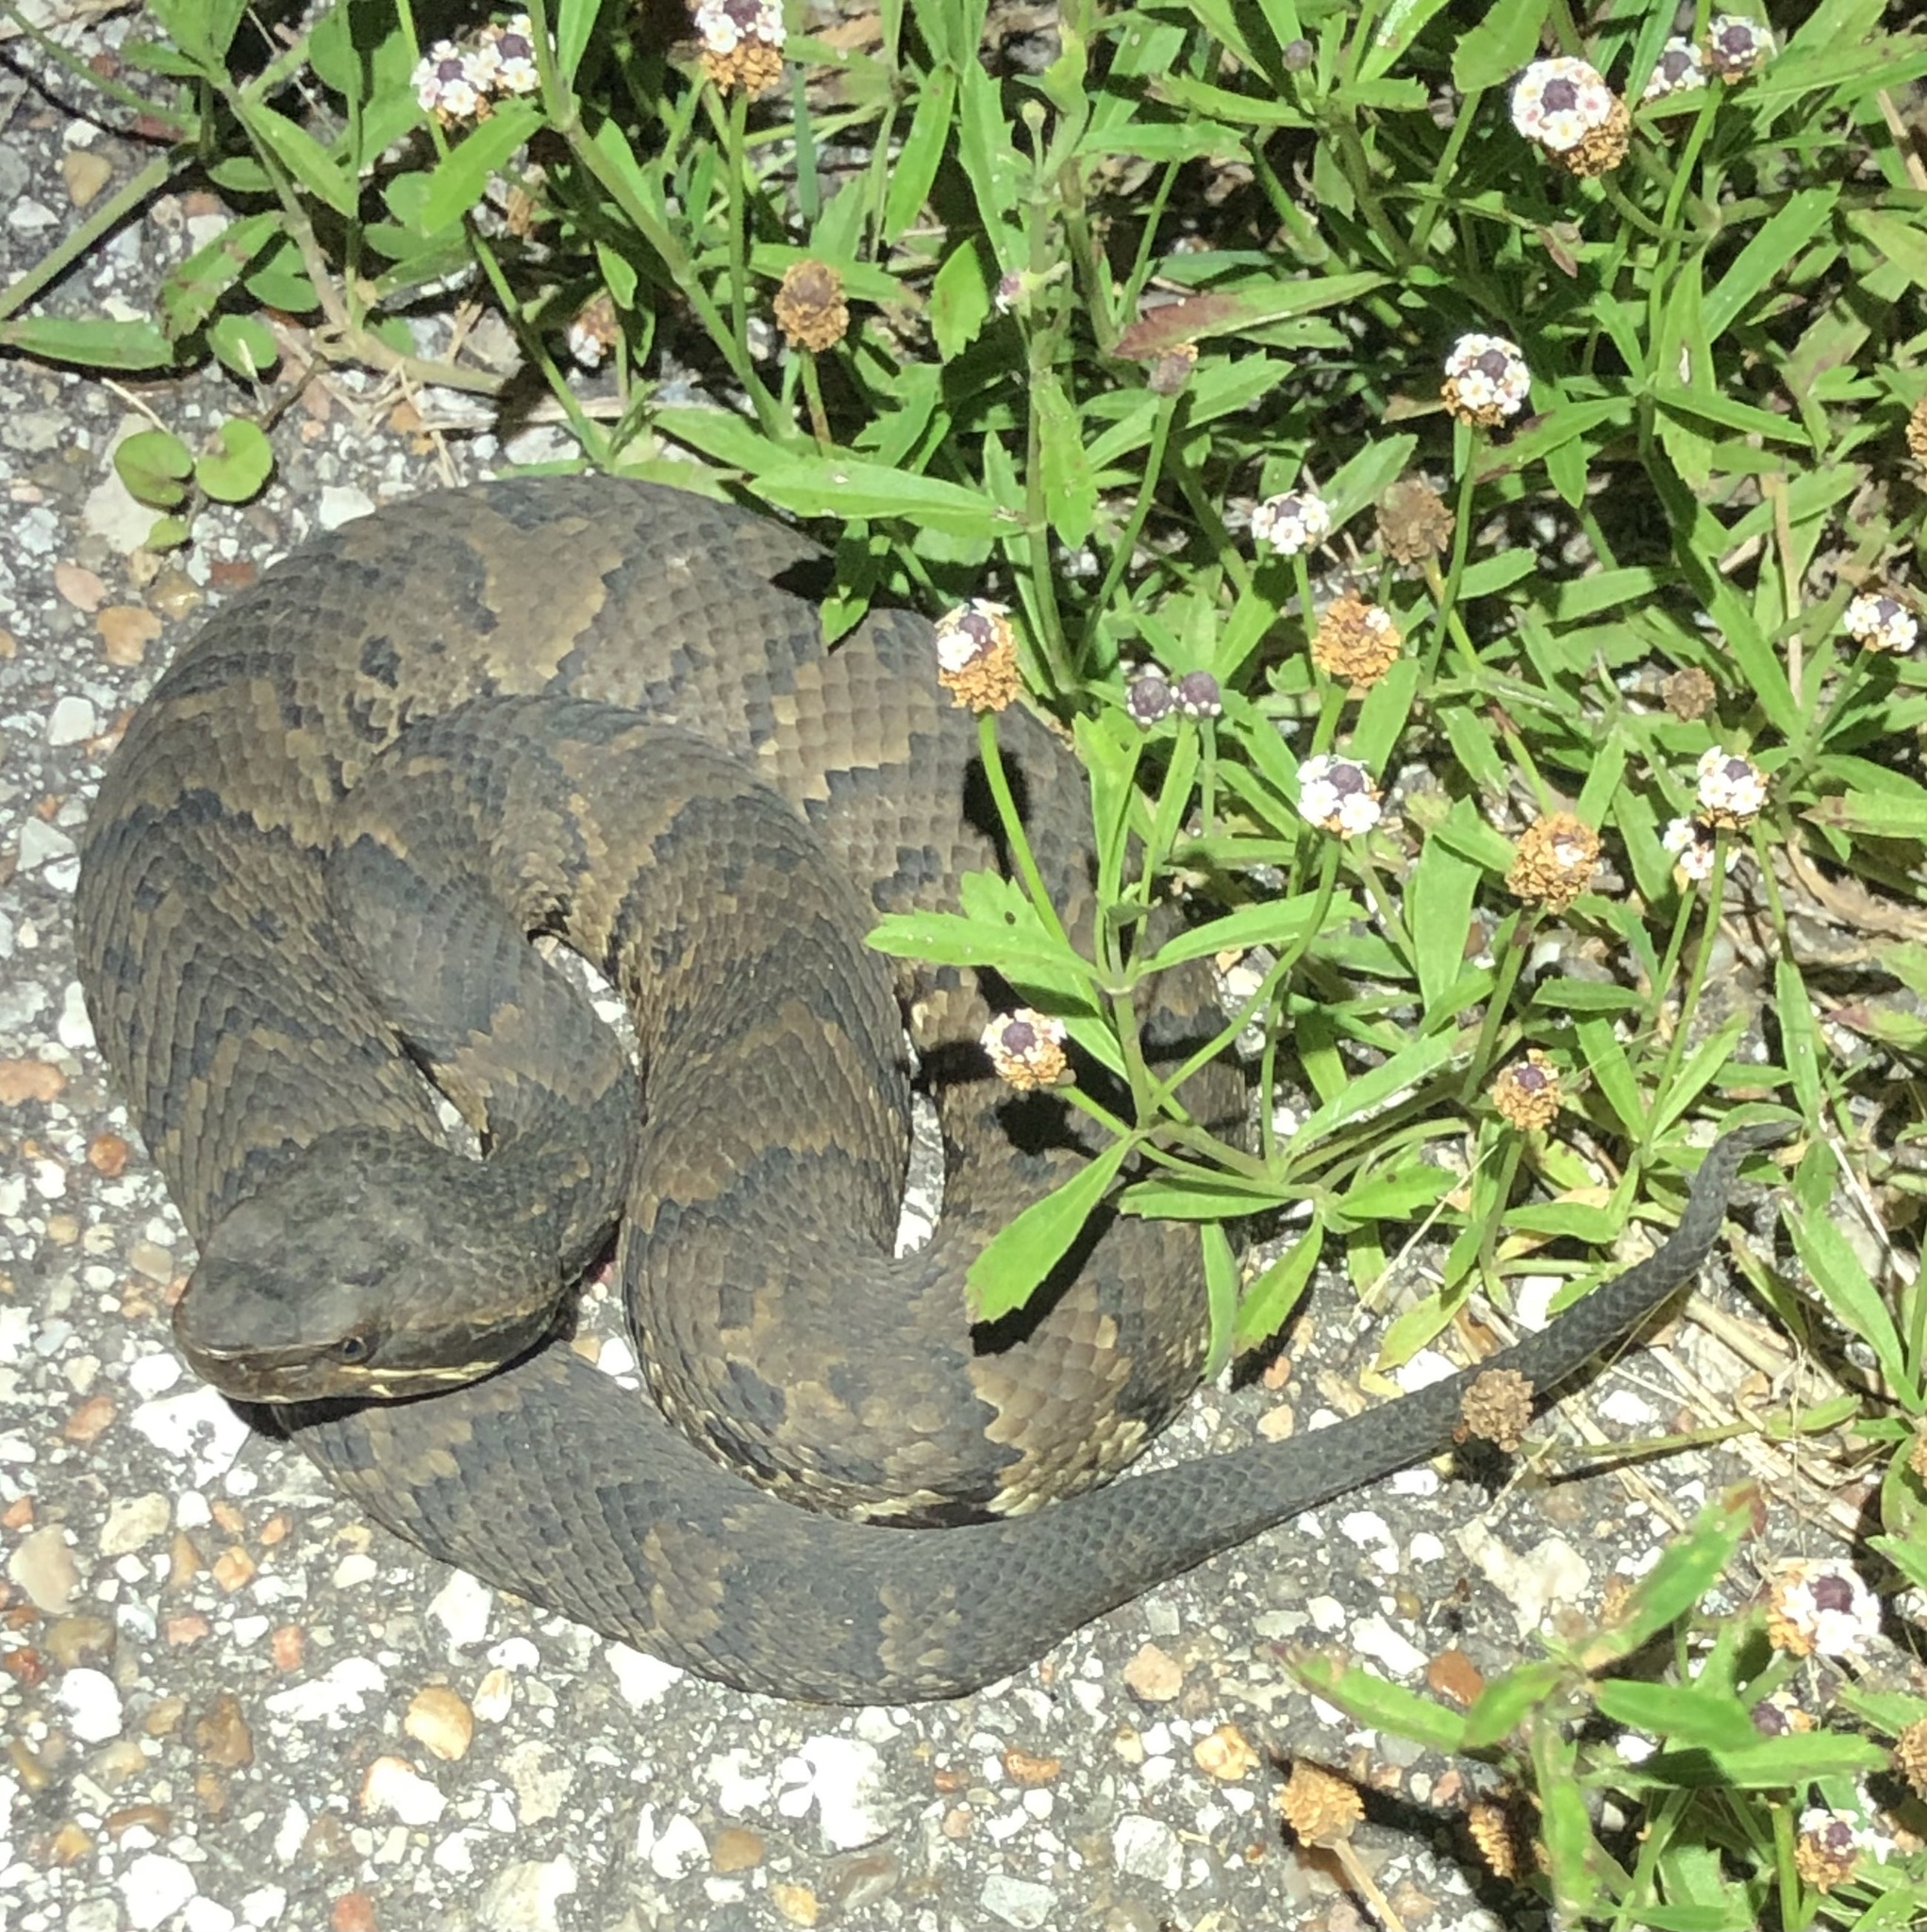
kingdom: Animalia
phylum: Chordata
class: Squamata
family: Viperidae
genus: Agkistrodon
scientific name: Agkistrodon piscivorus
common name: Cottonmouth
